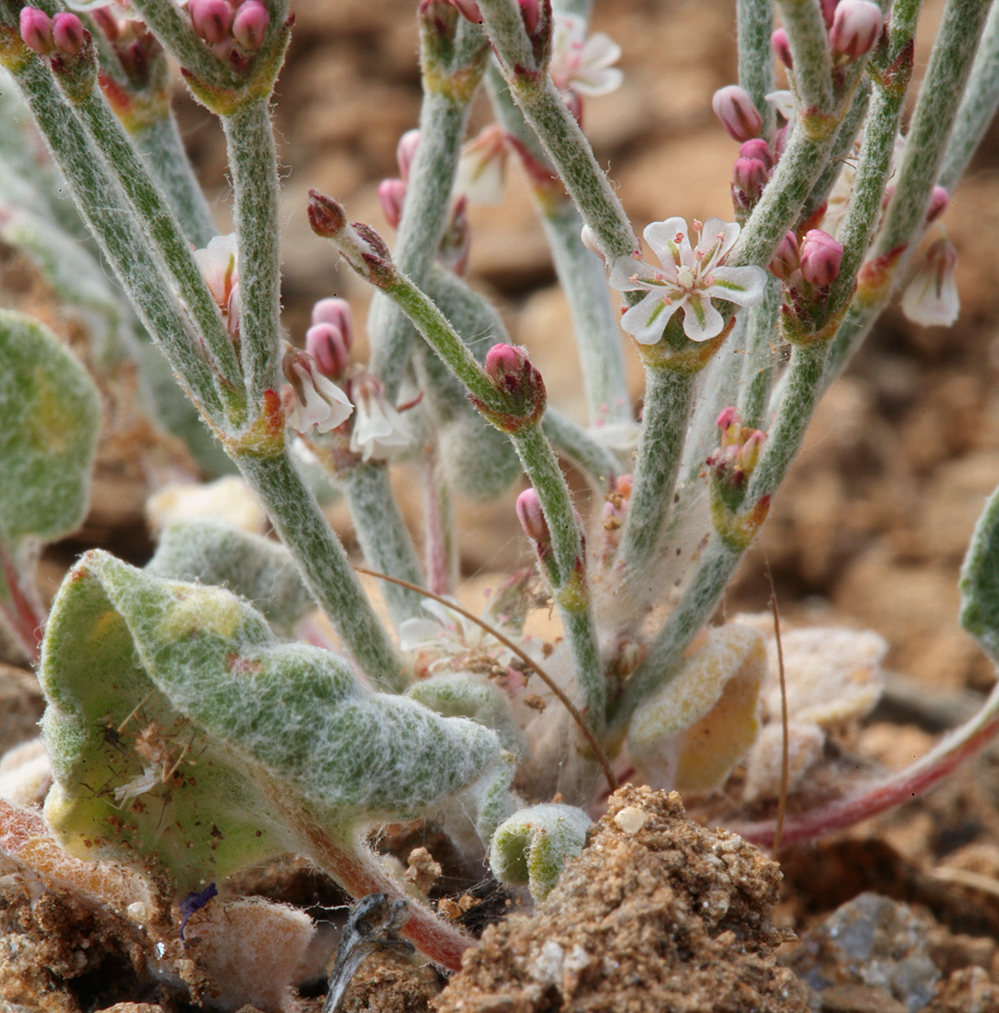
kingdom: Plantae
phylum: Tracheophyta
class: Magnoliopsida
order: Caryophyllales
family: Polygonaceae
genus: Eriogonum
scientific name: Eriogonum palmerianum
